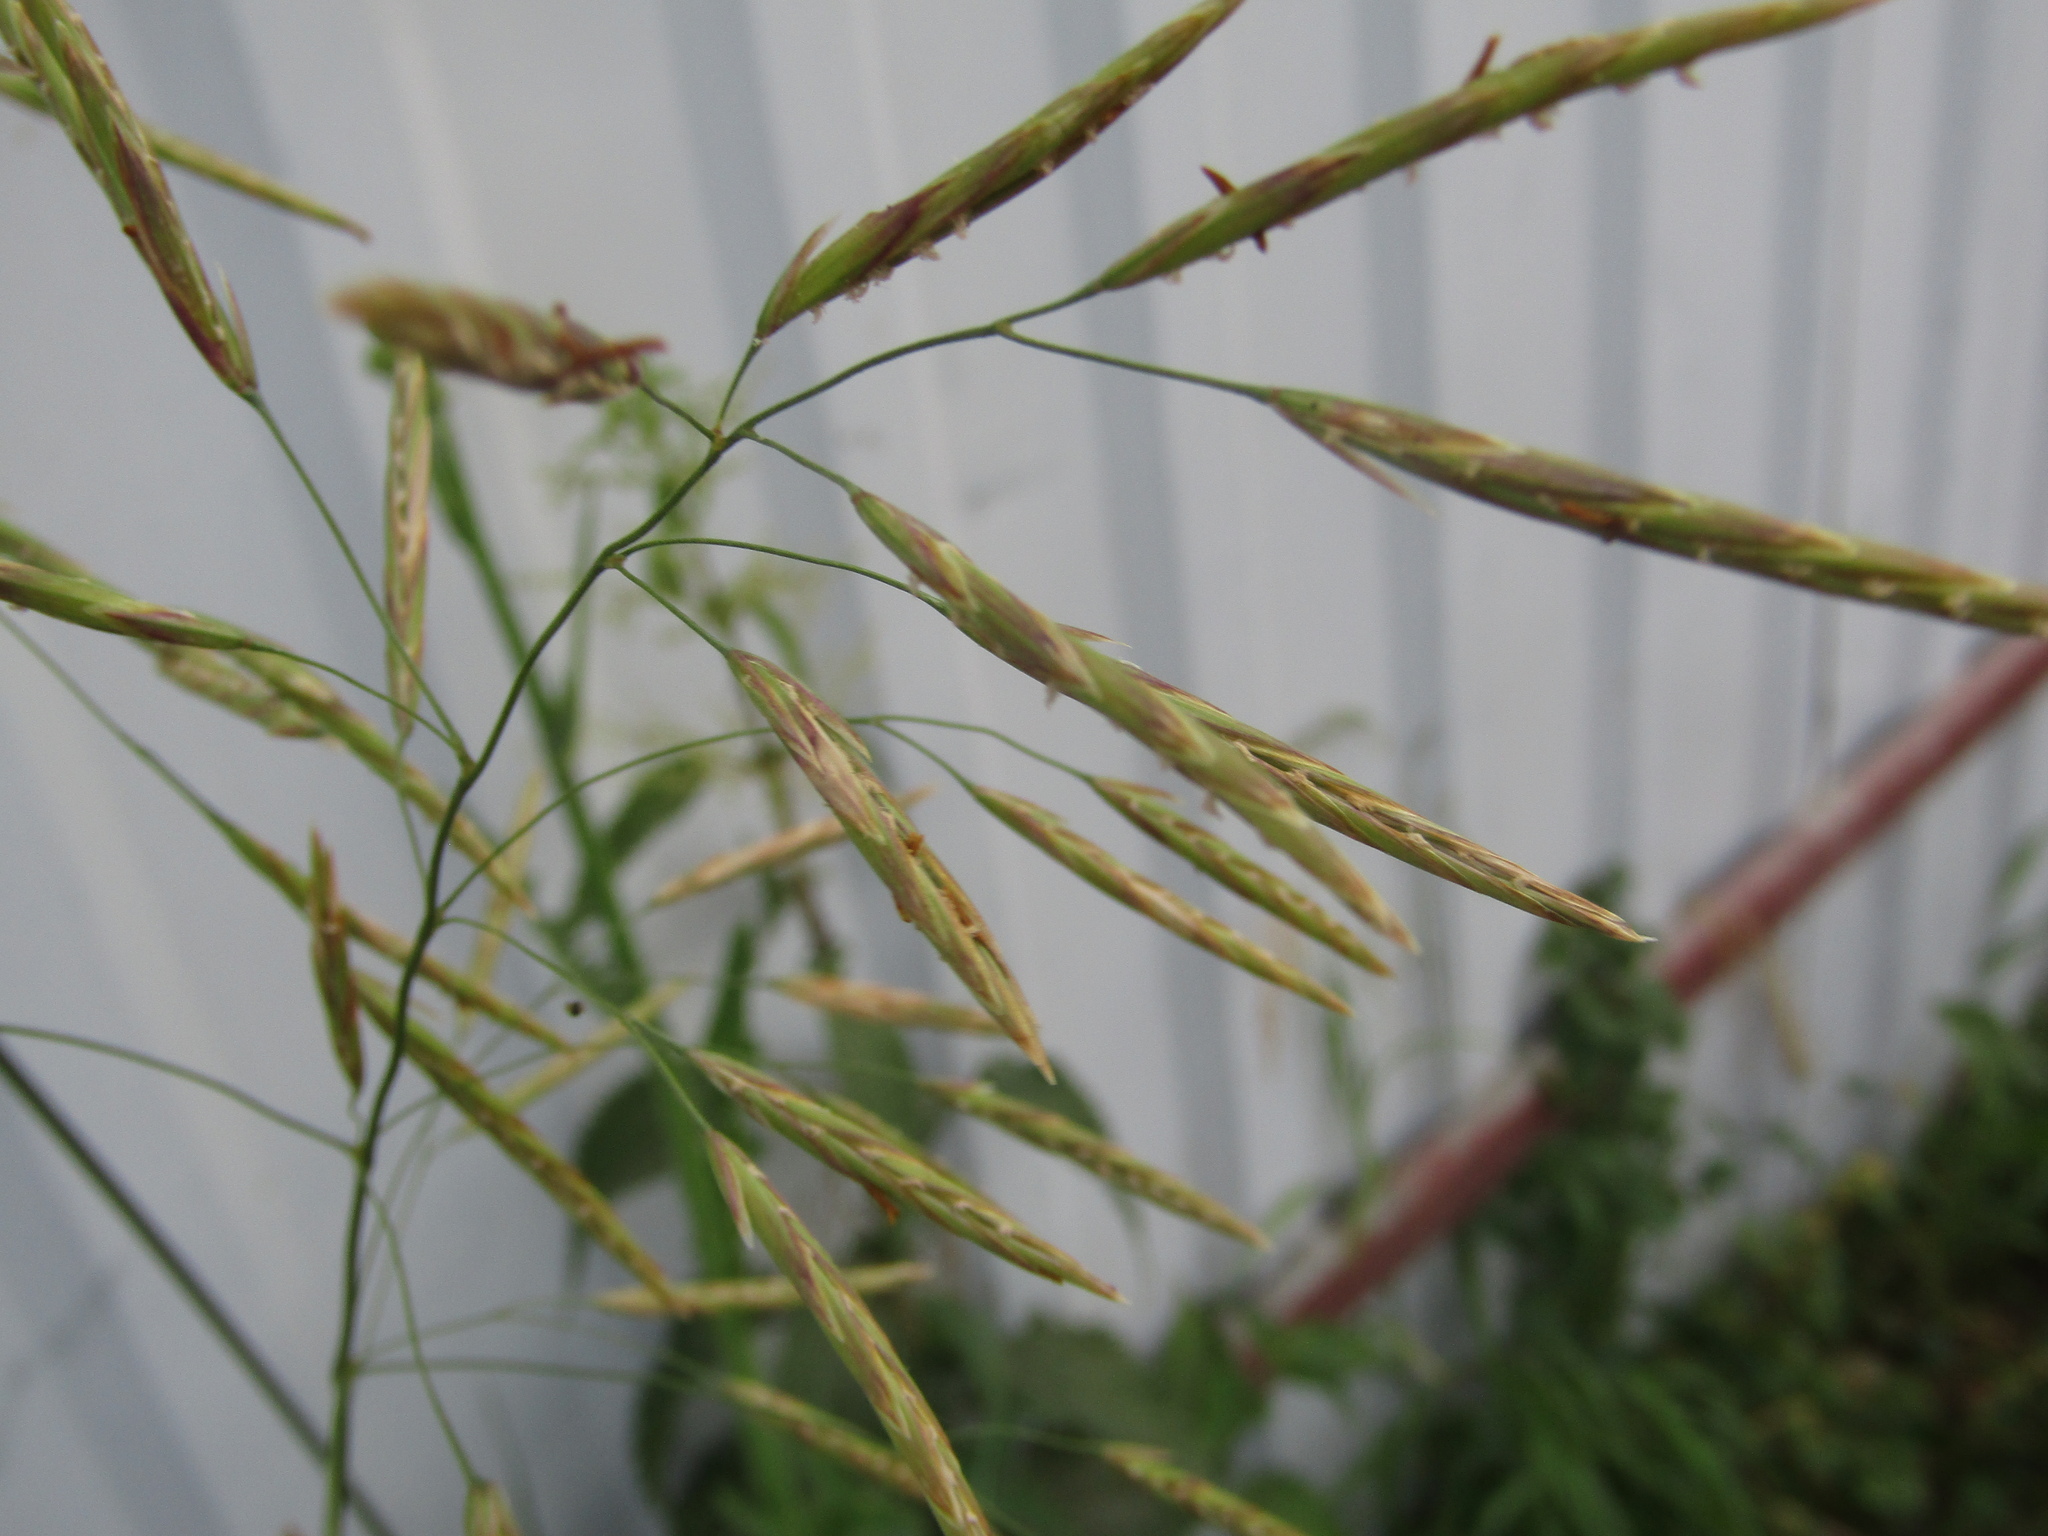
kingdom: Plantae
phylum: Tracheophyta
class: Liliopsida
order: Poales
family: Poaceae
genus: Bromus
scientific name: Bromus inermis
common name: Smooth brome
